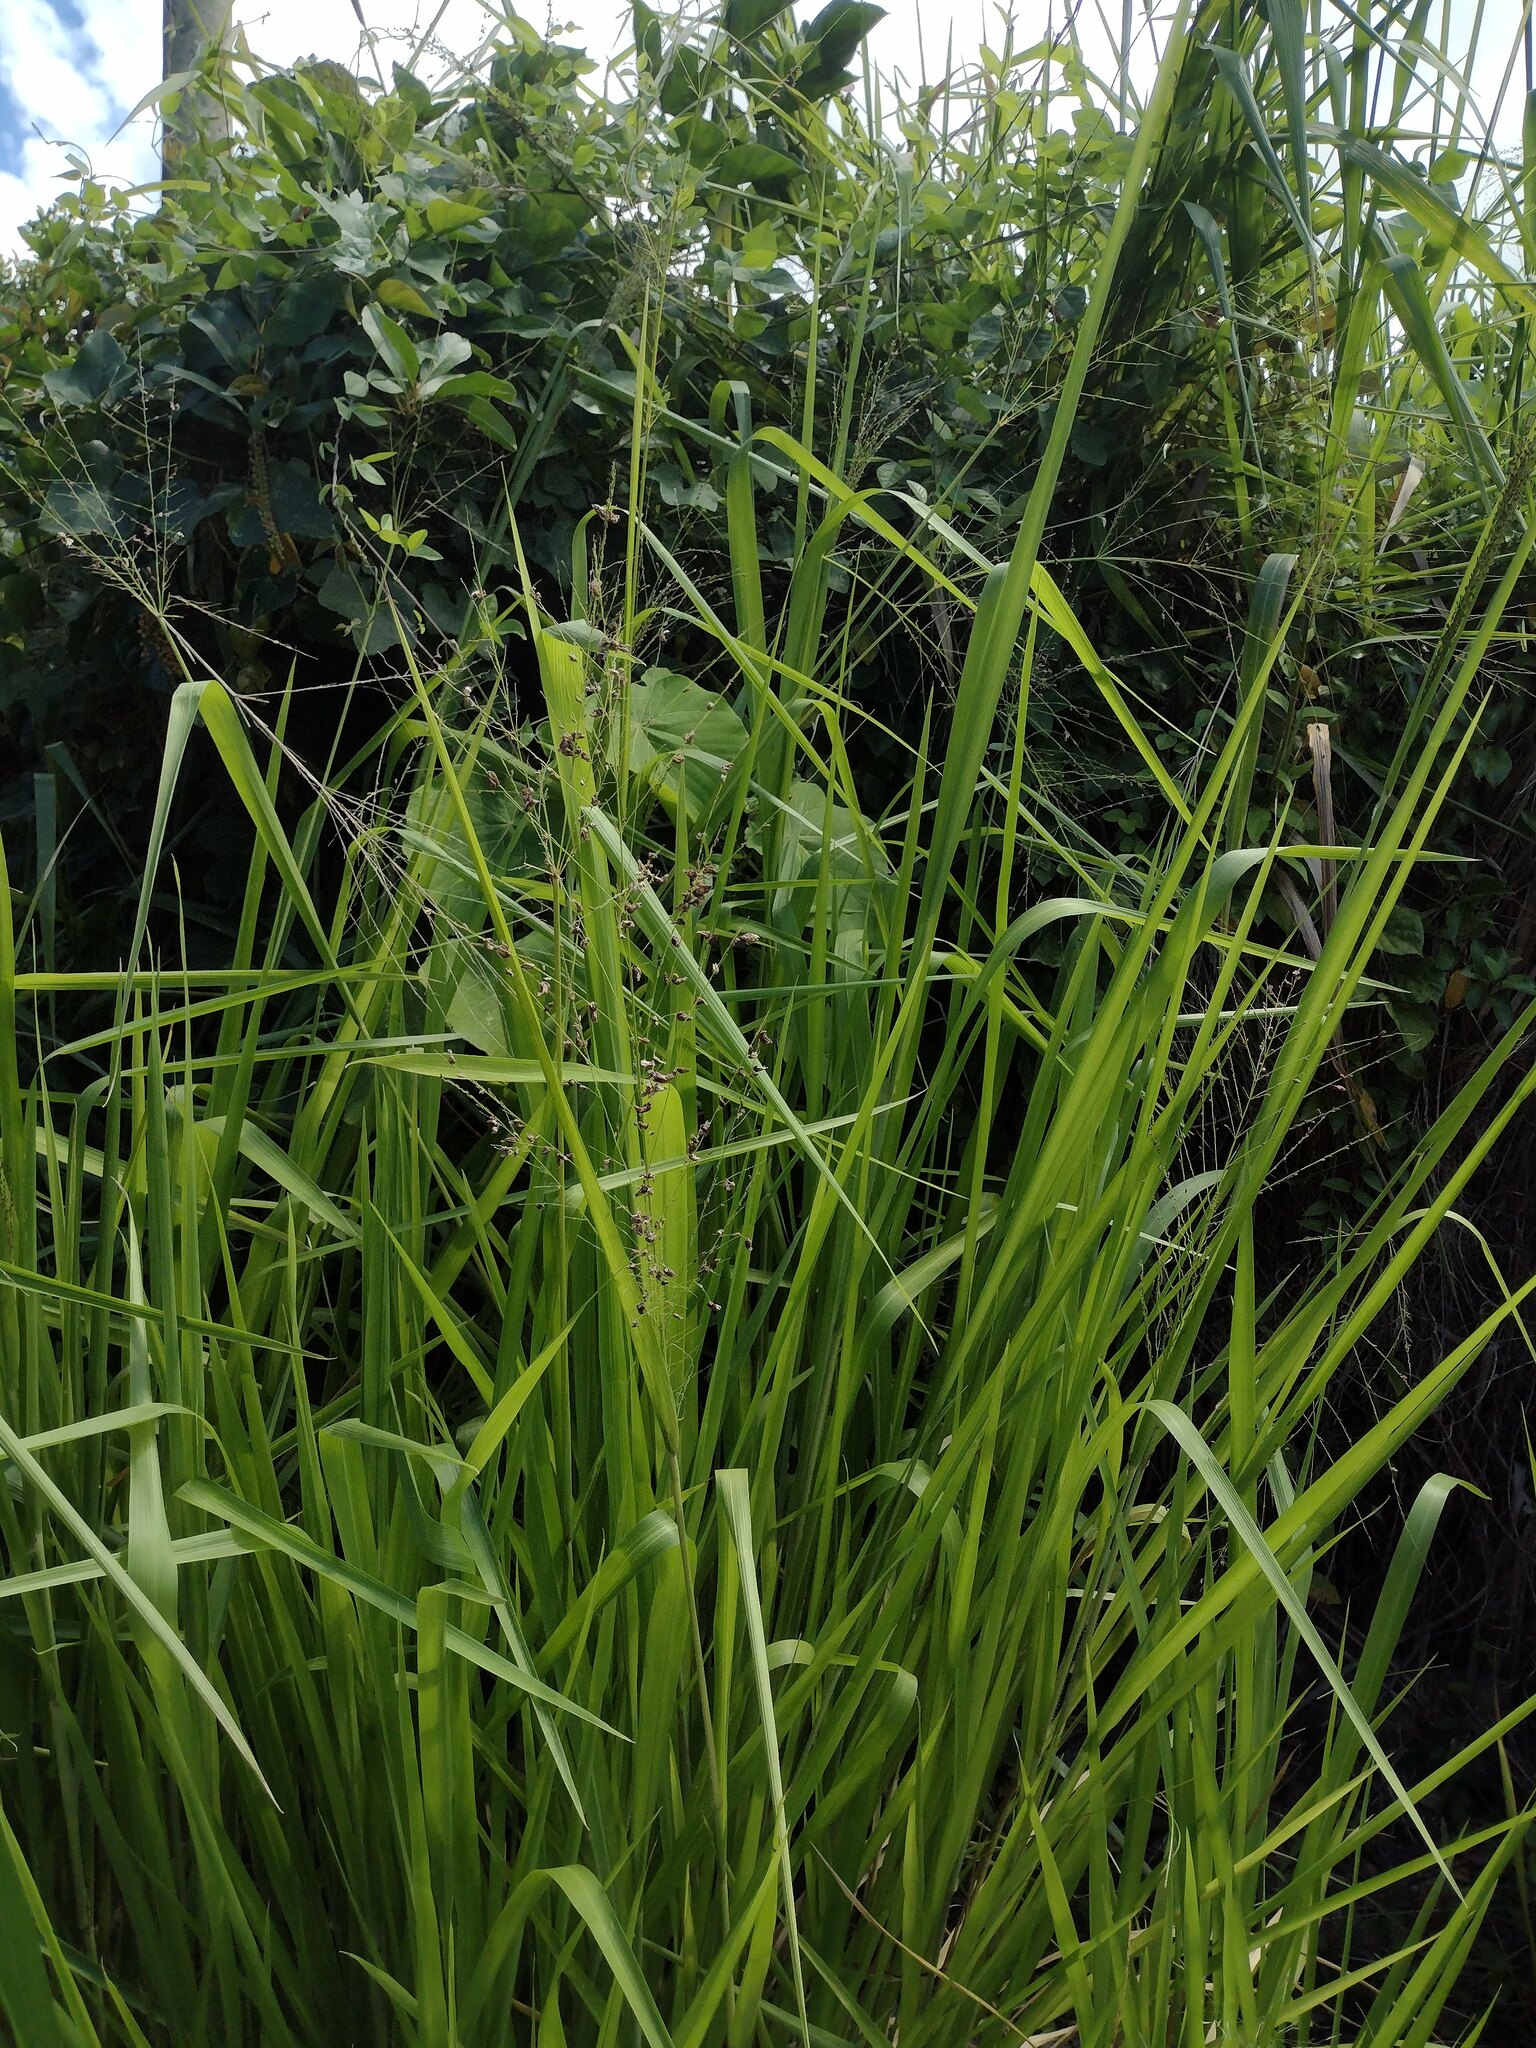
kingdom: Plantae
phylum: Tracheophyta
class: Liliopsida
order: Poales
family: Poaceae
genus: Megathyrsus
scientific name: Megathyrsus maximus
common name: Guineagrass
